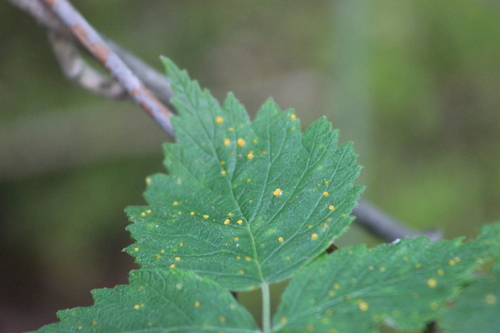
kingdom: Fungi
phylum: Basidiomycota
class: Pucciniomycetes
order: Pucciniales
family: Phragmidiaceae
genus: Phragmidium
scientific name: Phragmidium rubi-idaei
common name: Raspberry rust
